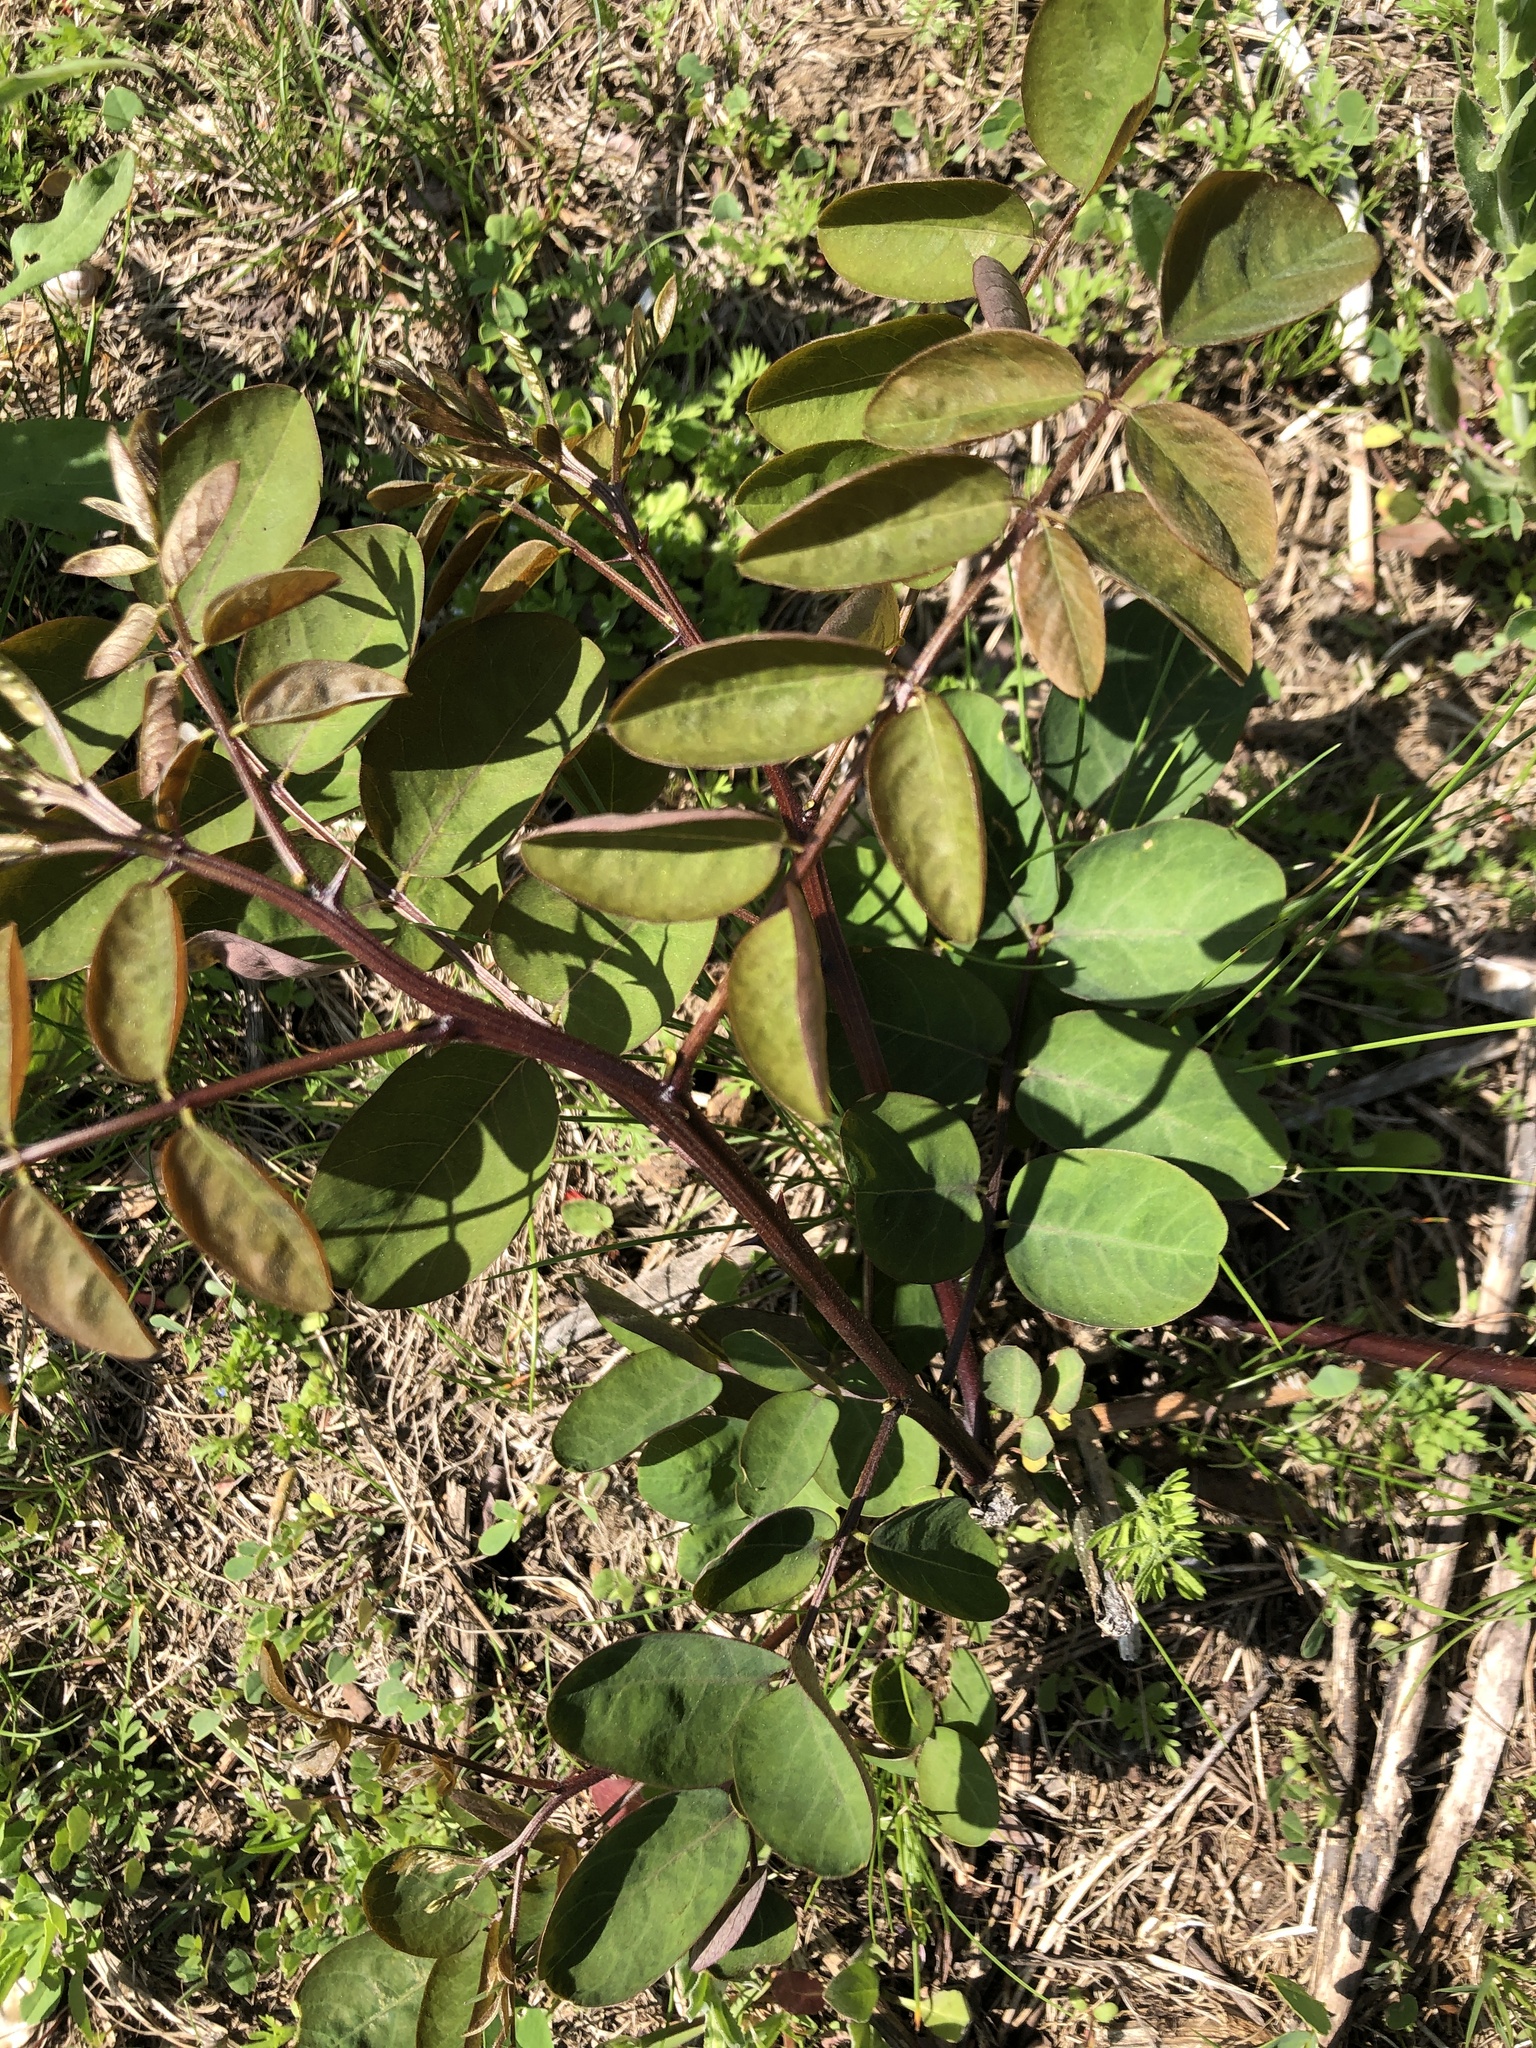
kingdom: Plantae
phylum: Tracheophyta
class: Magnoliopsida
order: Fabales
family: Fabaceae
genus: Robinia
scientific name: Robinia pseudoacacia
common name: Black locust
